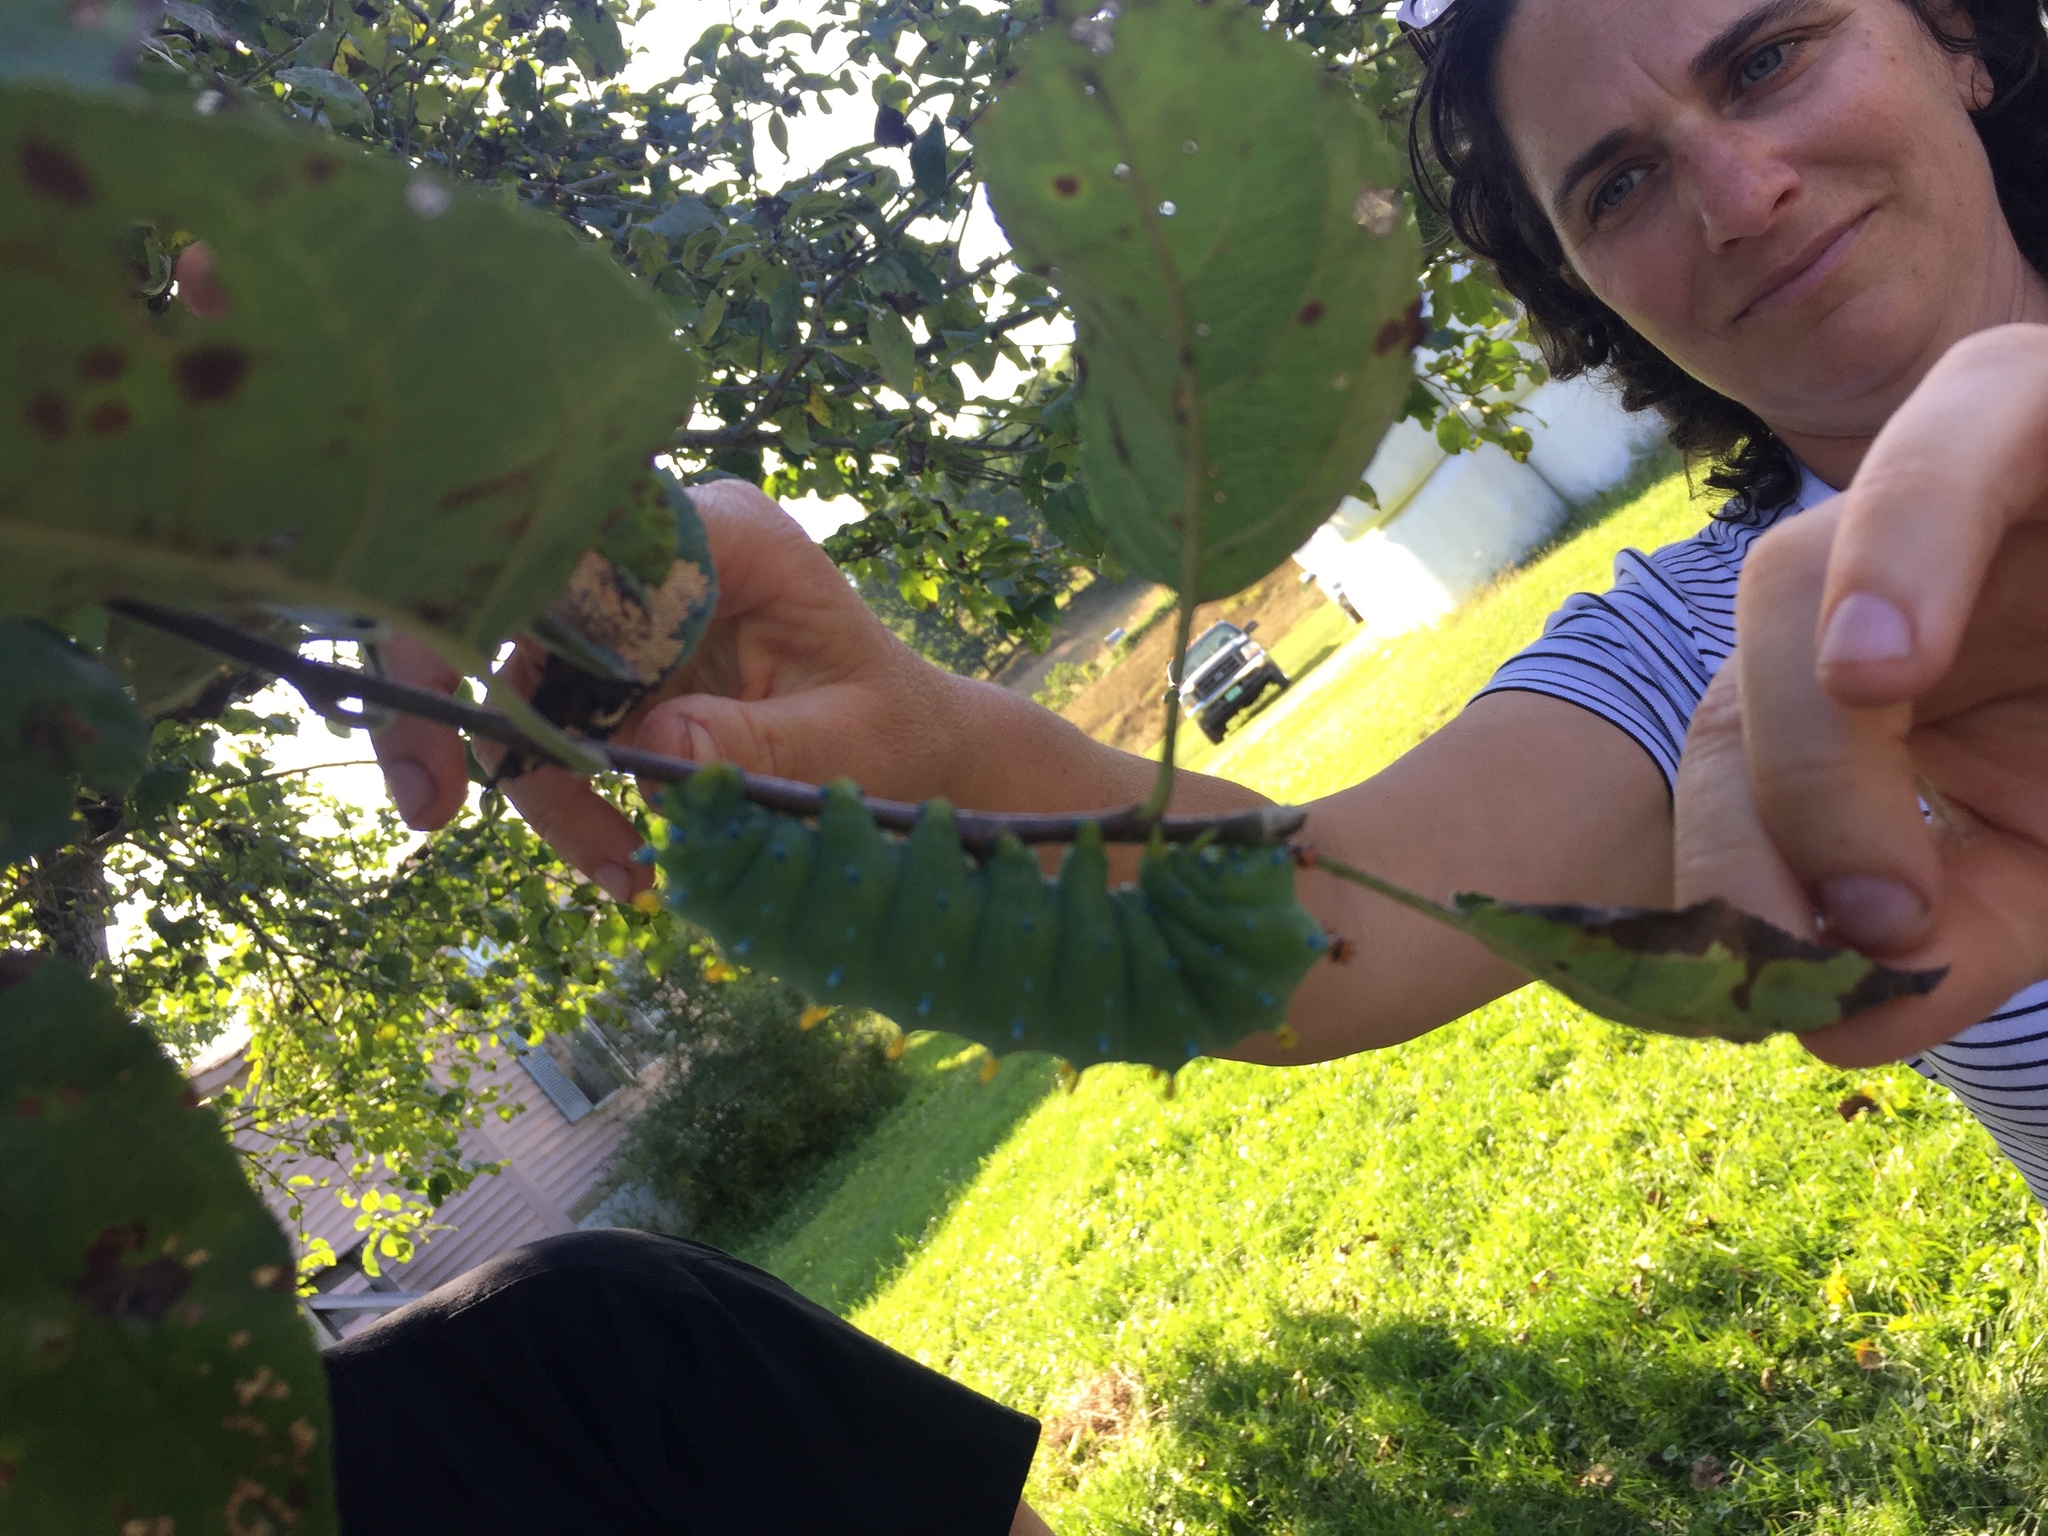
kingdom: Animalia
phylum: Arthropoda
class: Insecta
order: Lepidoptera
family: Saturniidae
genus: Hyalophora
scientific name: Hyalophora cecropia
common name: Cecropia silkmoth
